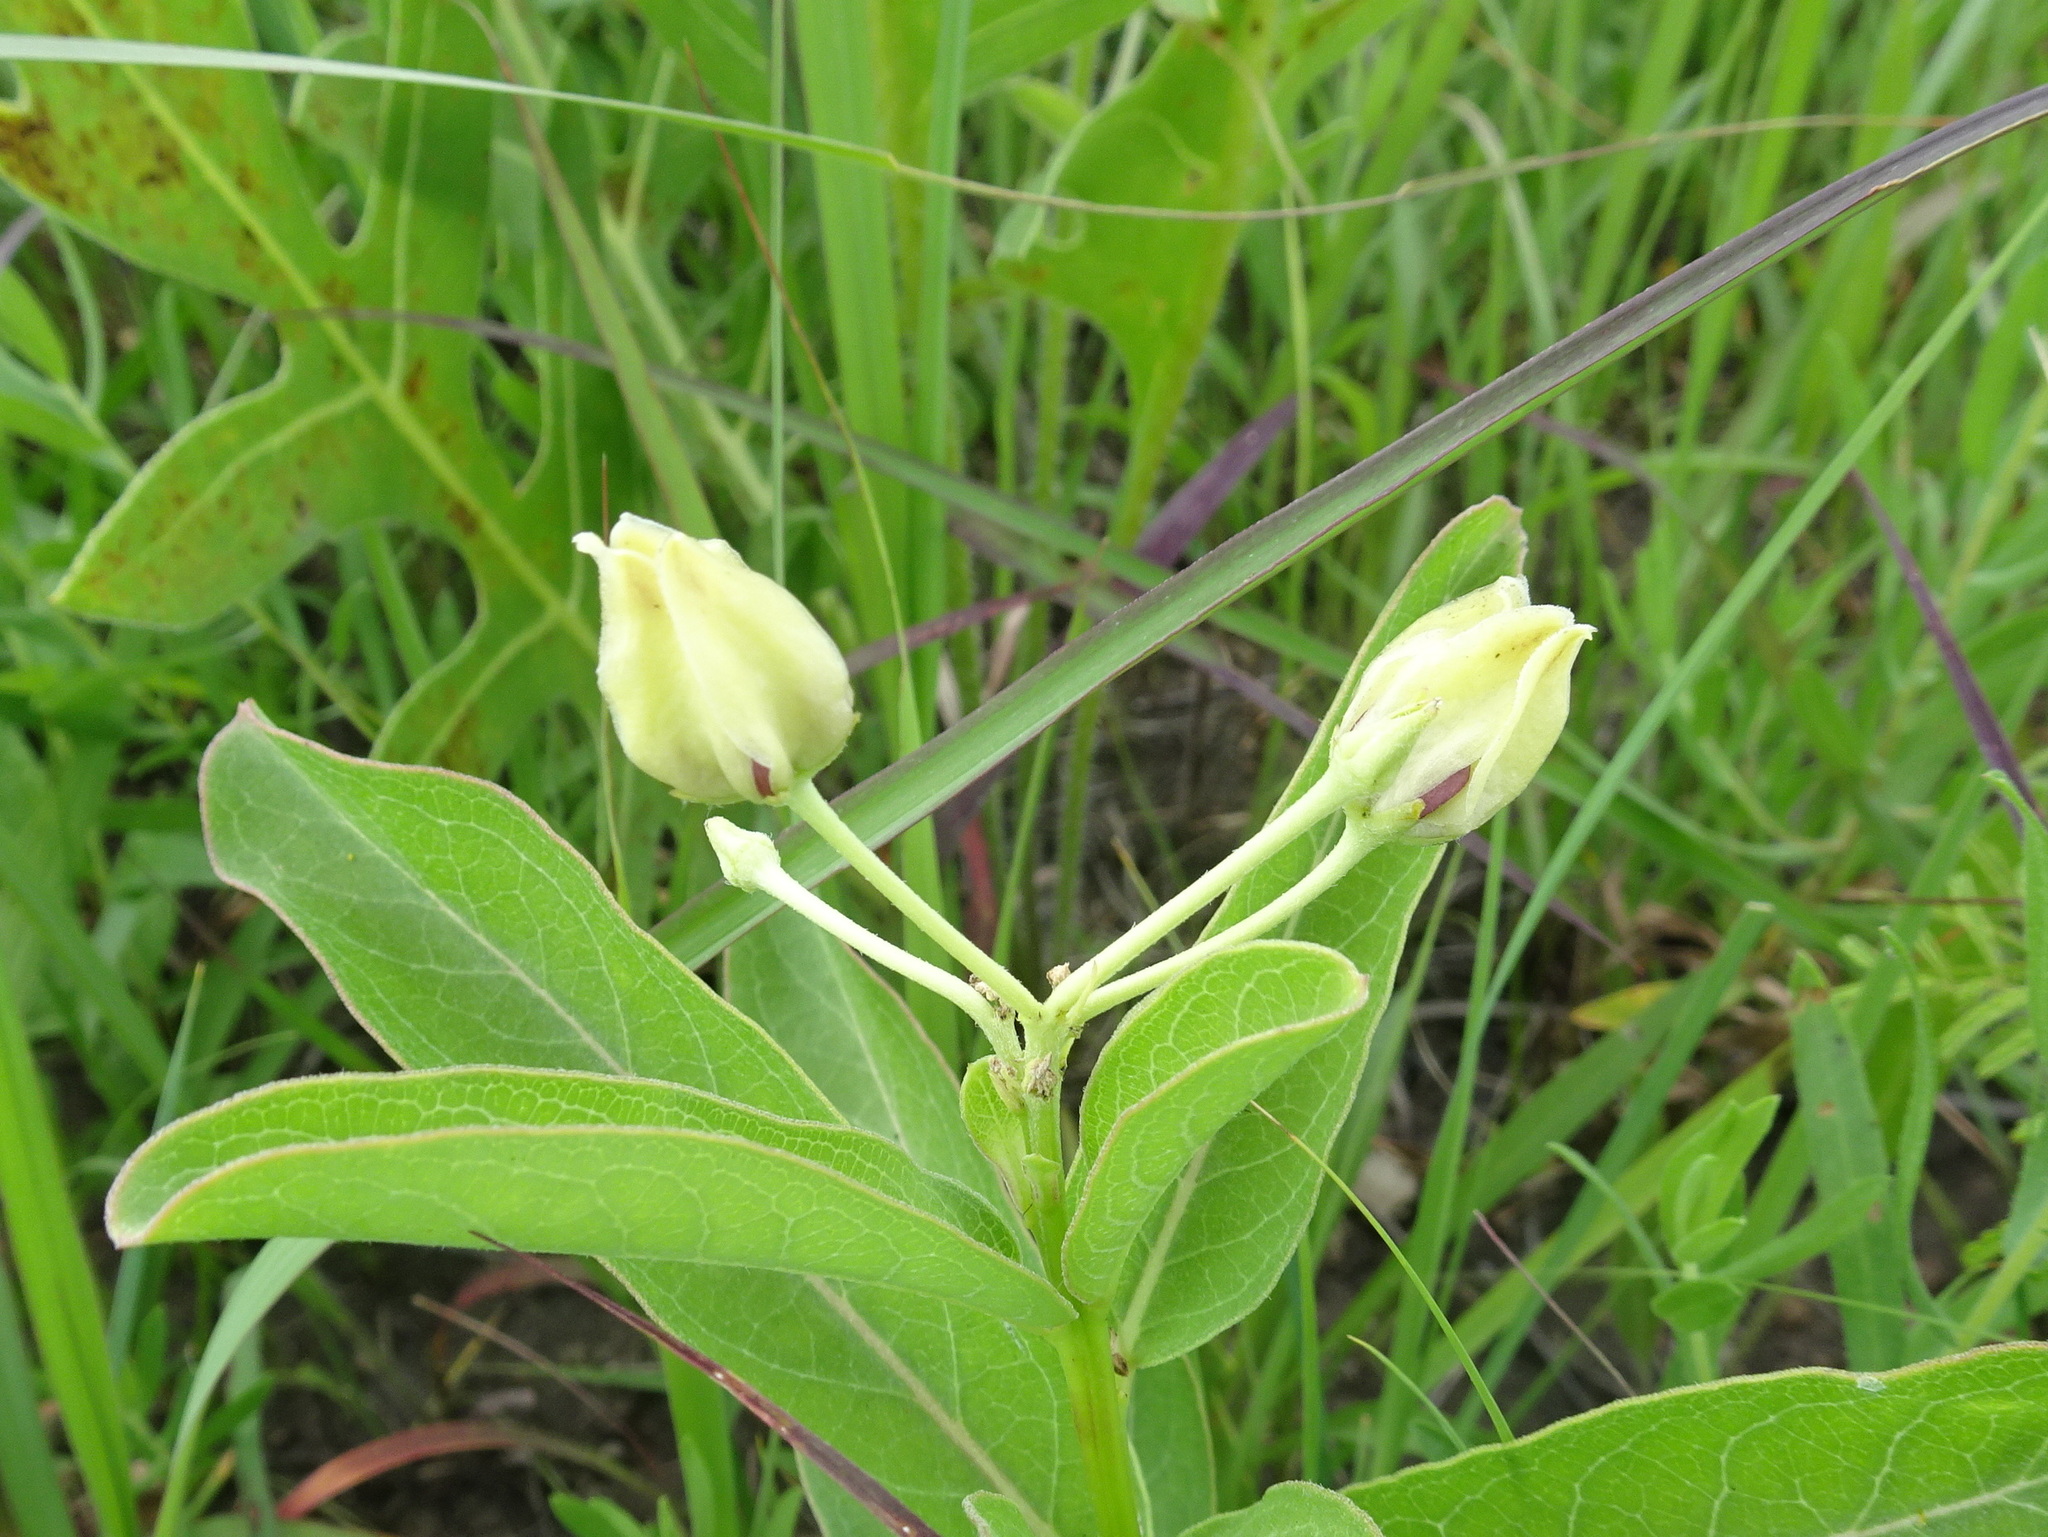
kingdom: Plantae
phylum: Tracheophyta
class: Magnoliopsida
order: Gentianales
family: Apocynaceae
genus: Asclepias
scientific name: Asclepias viridis
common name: Antelope-horns
